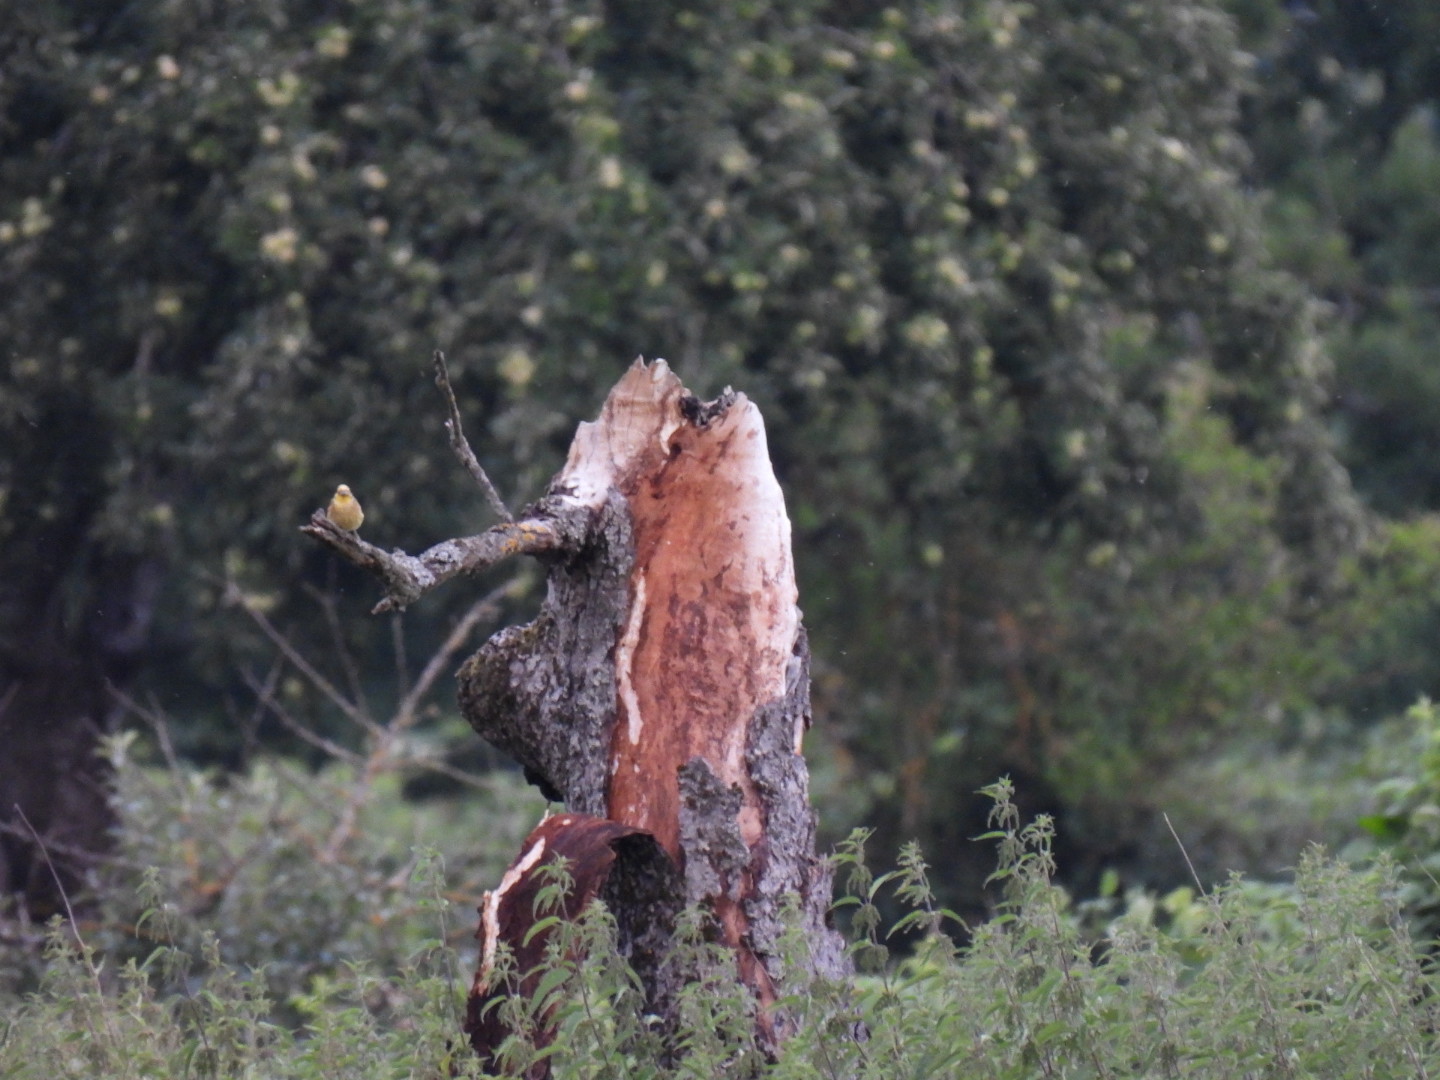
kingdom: Animalia
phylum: Chordata
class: Aves
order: Passeriformes
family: Emberizidae
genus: Emberiza
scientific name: Emberiza citrinella
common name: Yellowhammer
